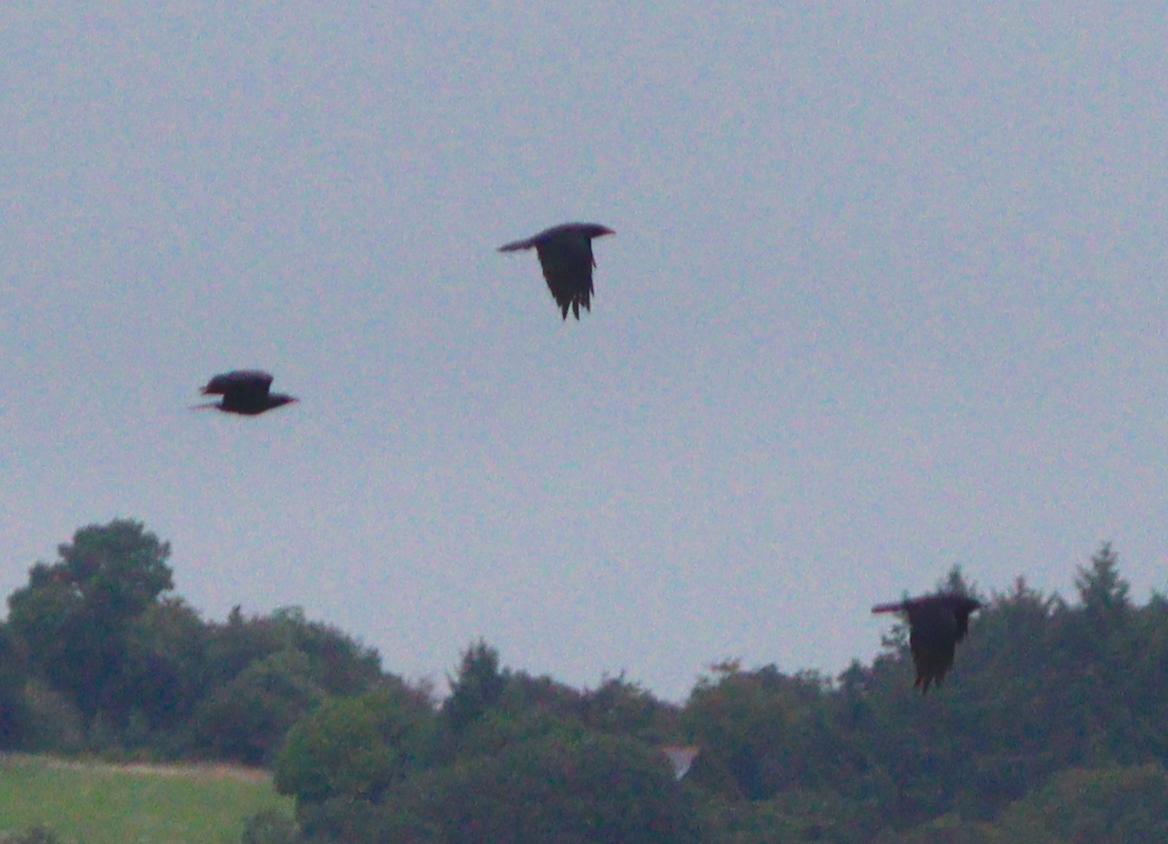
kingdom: Animalia
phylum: Chordata
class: Aves
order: Passeriformes
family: Corvidae
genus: Corvus
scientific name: Corvus corone
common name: Carrion crow
